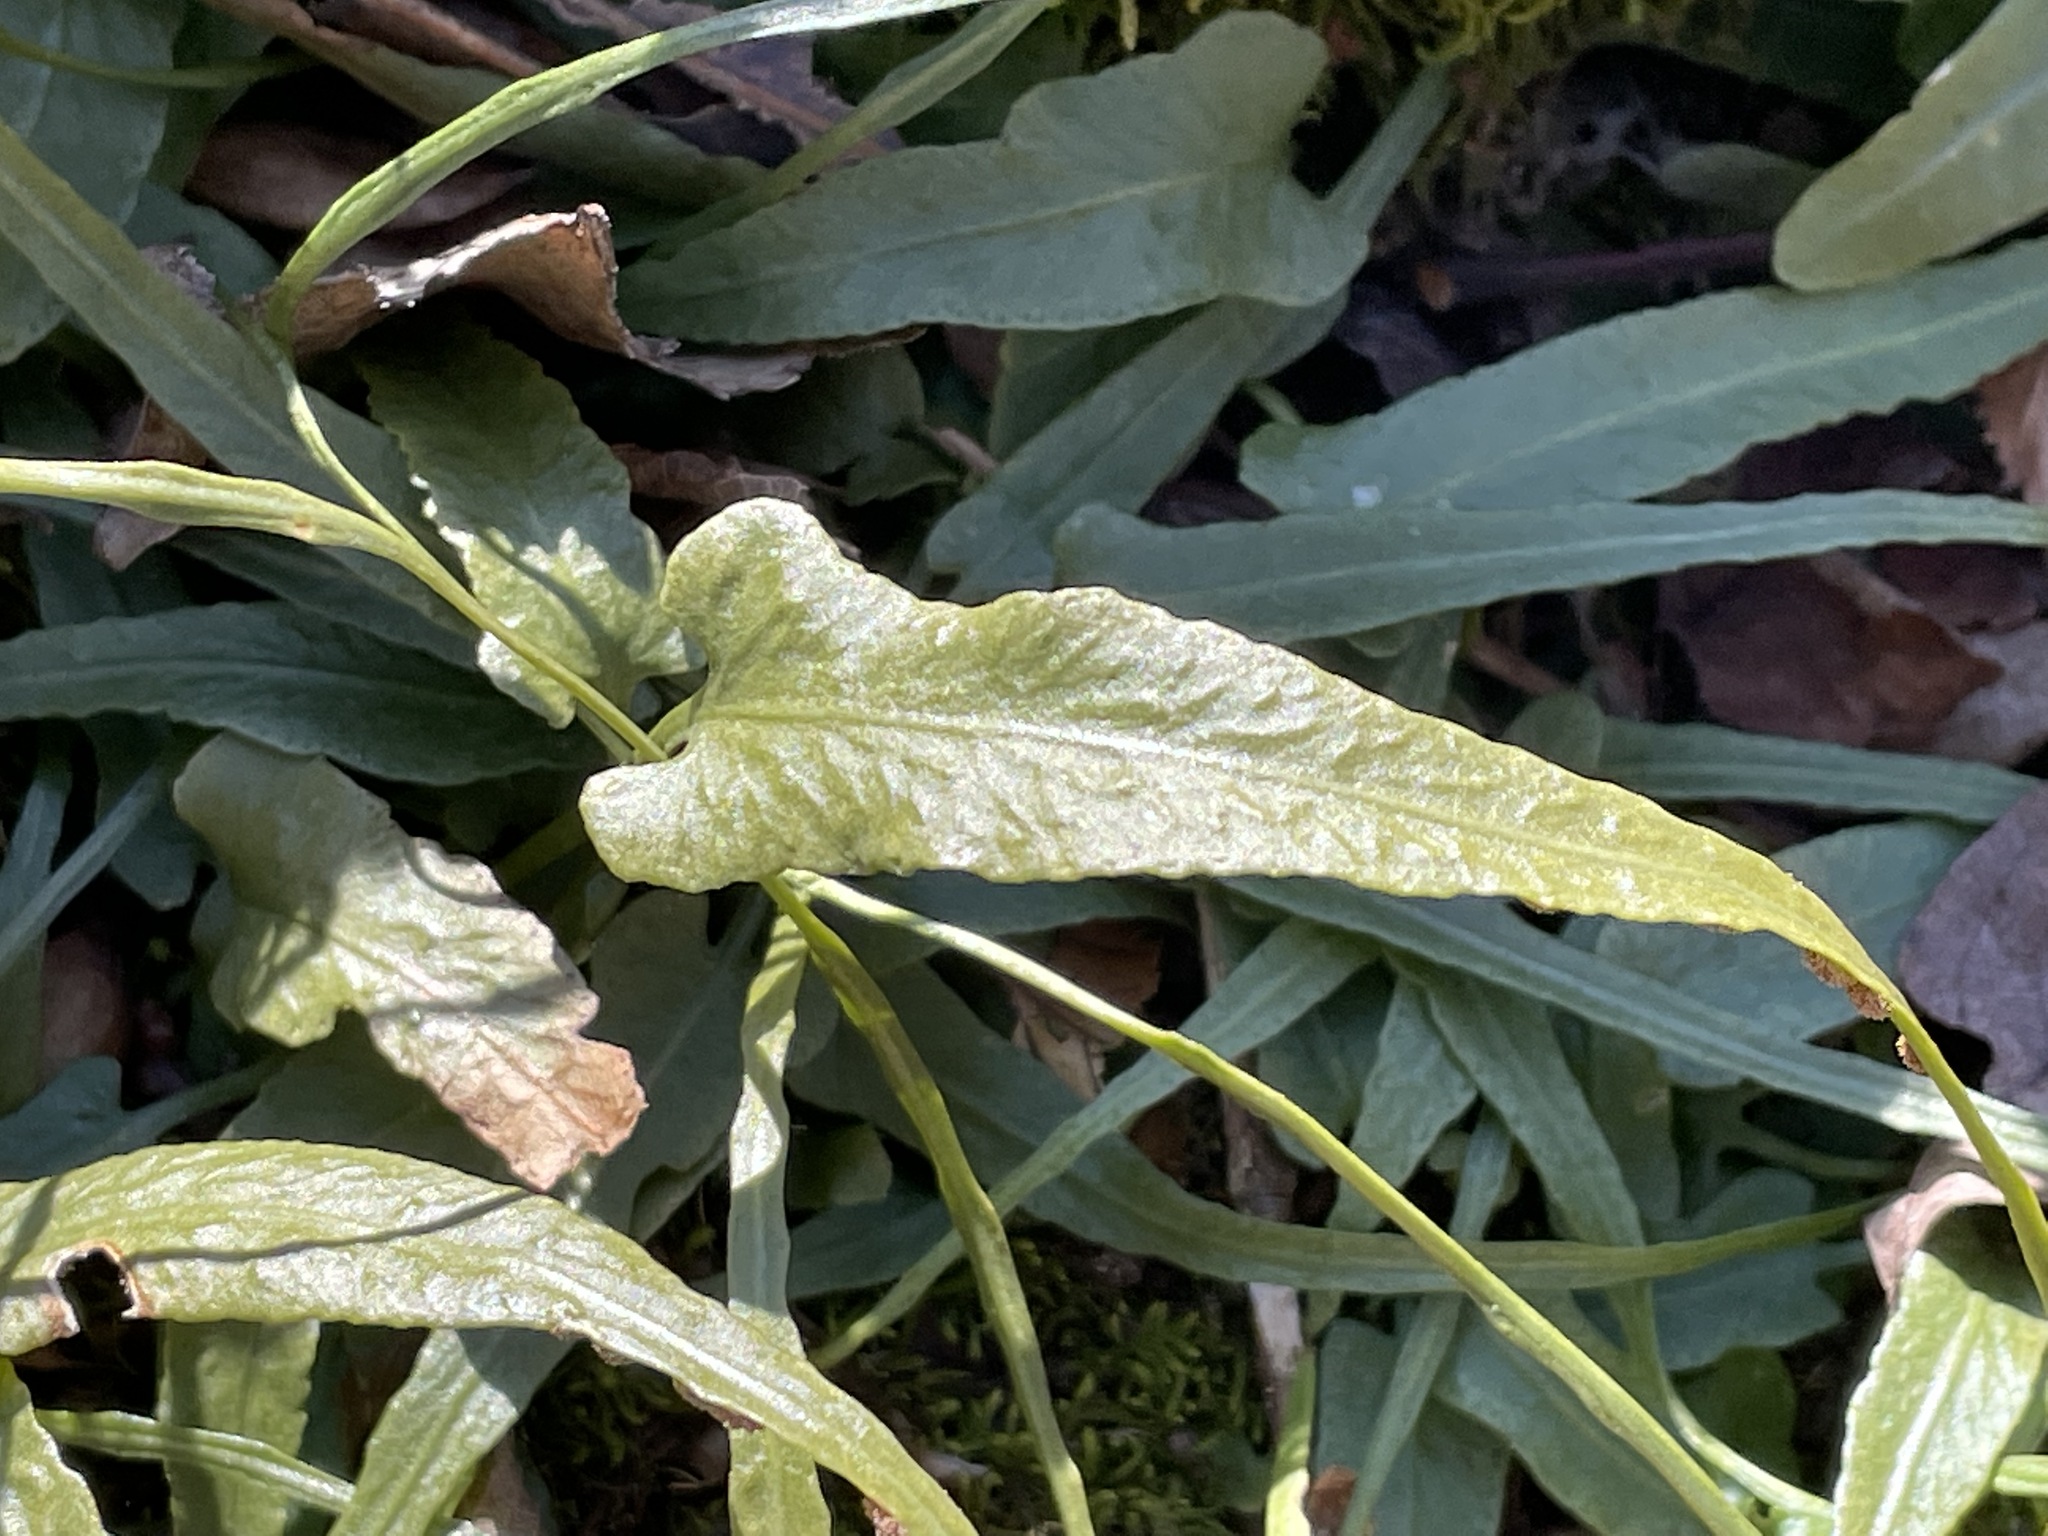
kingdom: Plantae
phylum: Tracheophyta
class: Polypodiopsida
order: Polypodiales
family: Aspleniaceae
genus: Asplenium
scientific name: Asplenium rhizophyllum
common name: Walking fern
